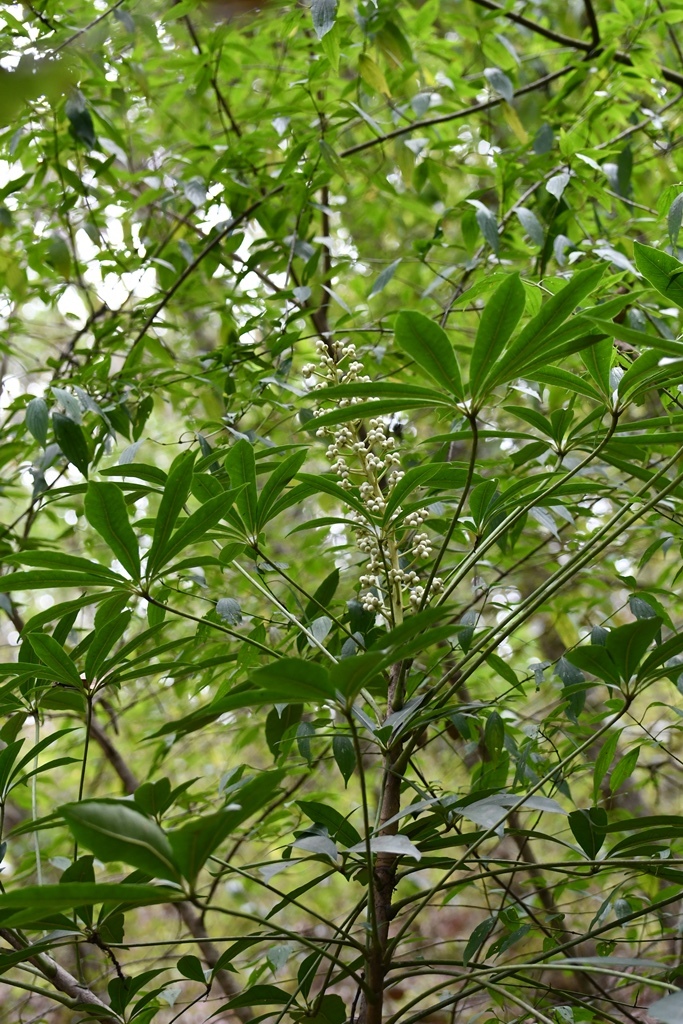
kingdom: Plantae
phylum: Tracheophyta
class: Magnoliopsida
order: Apiales
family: Araliaceae
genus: Oreopanax
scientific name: Oreopanax xalapensis
